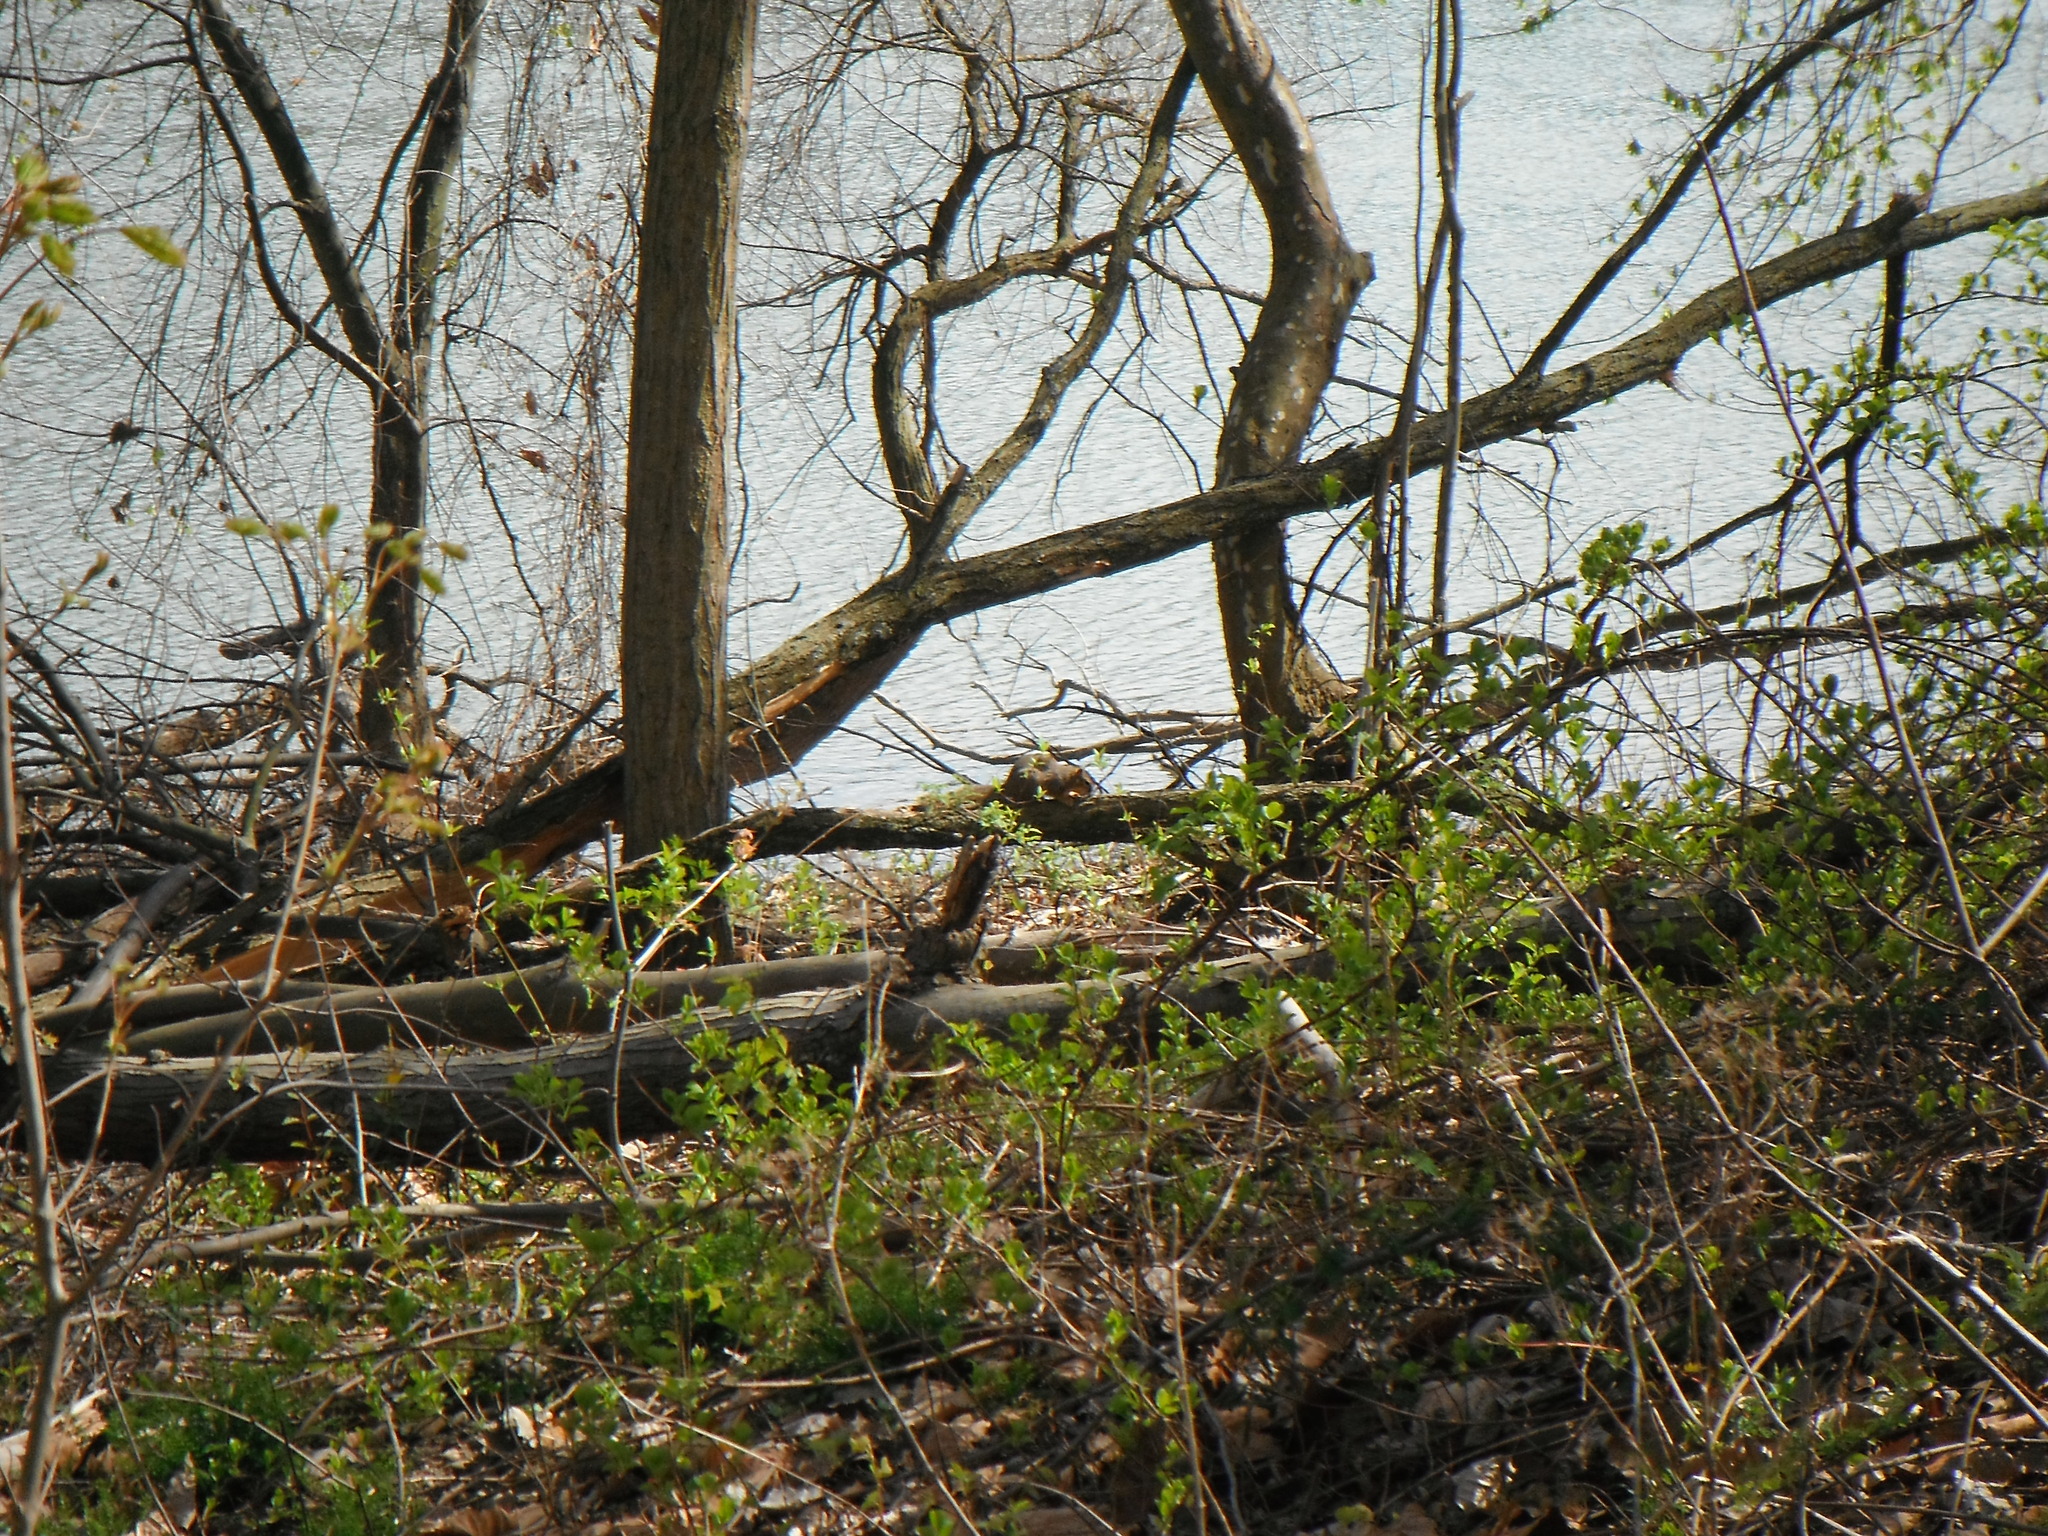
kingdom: Animalia
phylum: Chordata
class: Mammalia
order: Rodentia
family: Sciuridae
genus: Sciurus
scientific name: Sciurus niger
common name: Fox squirrel
